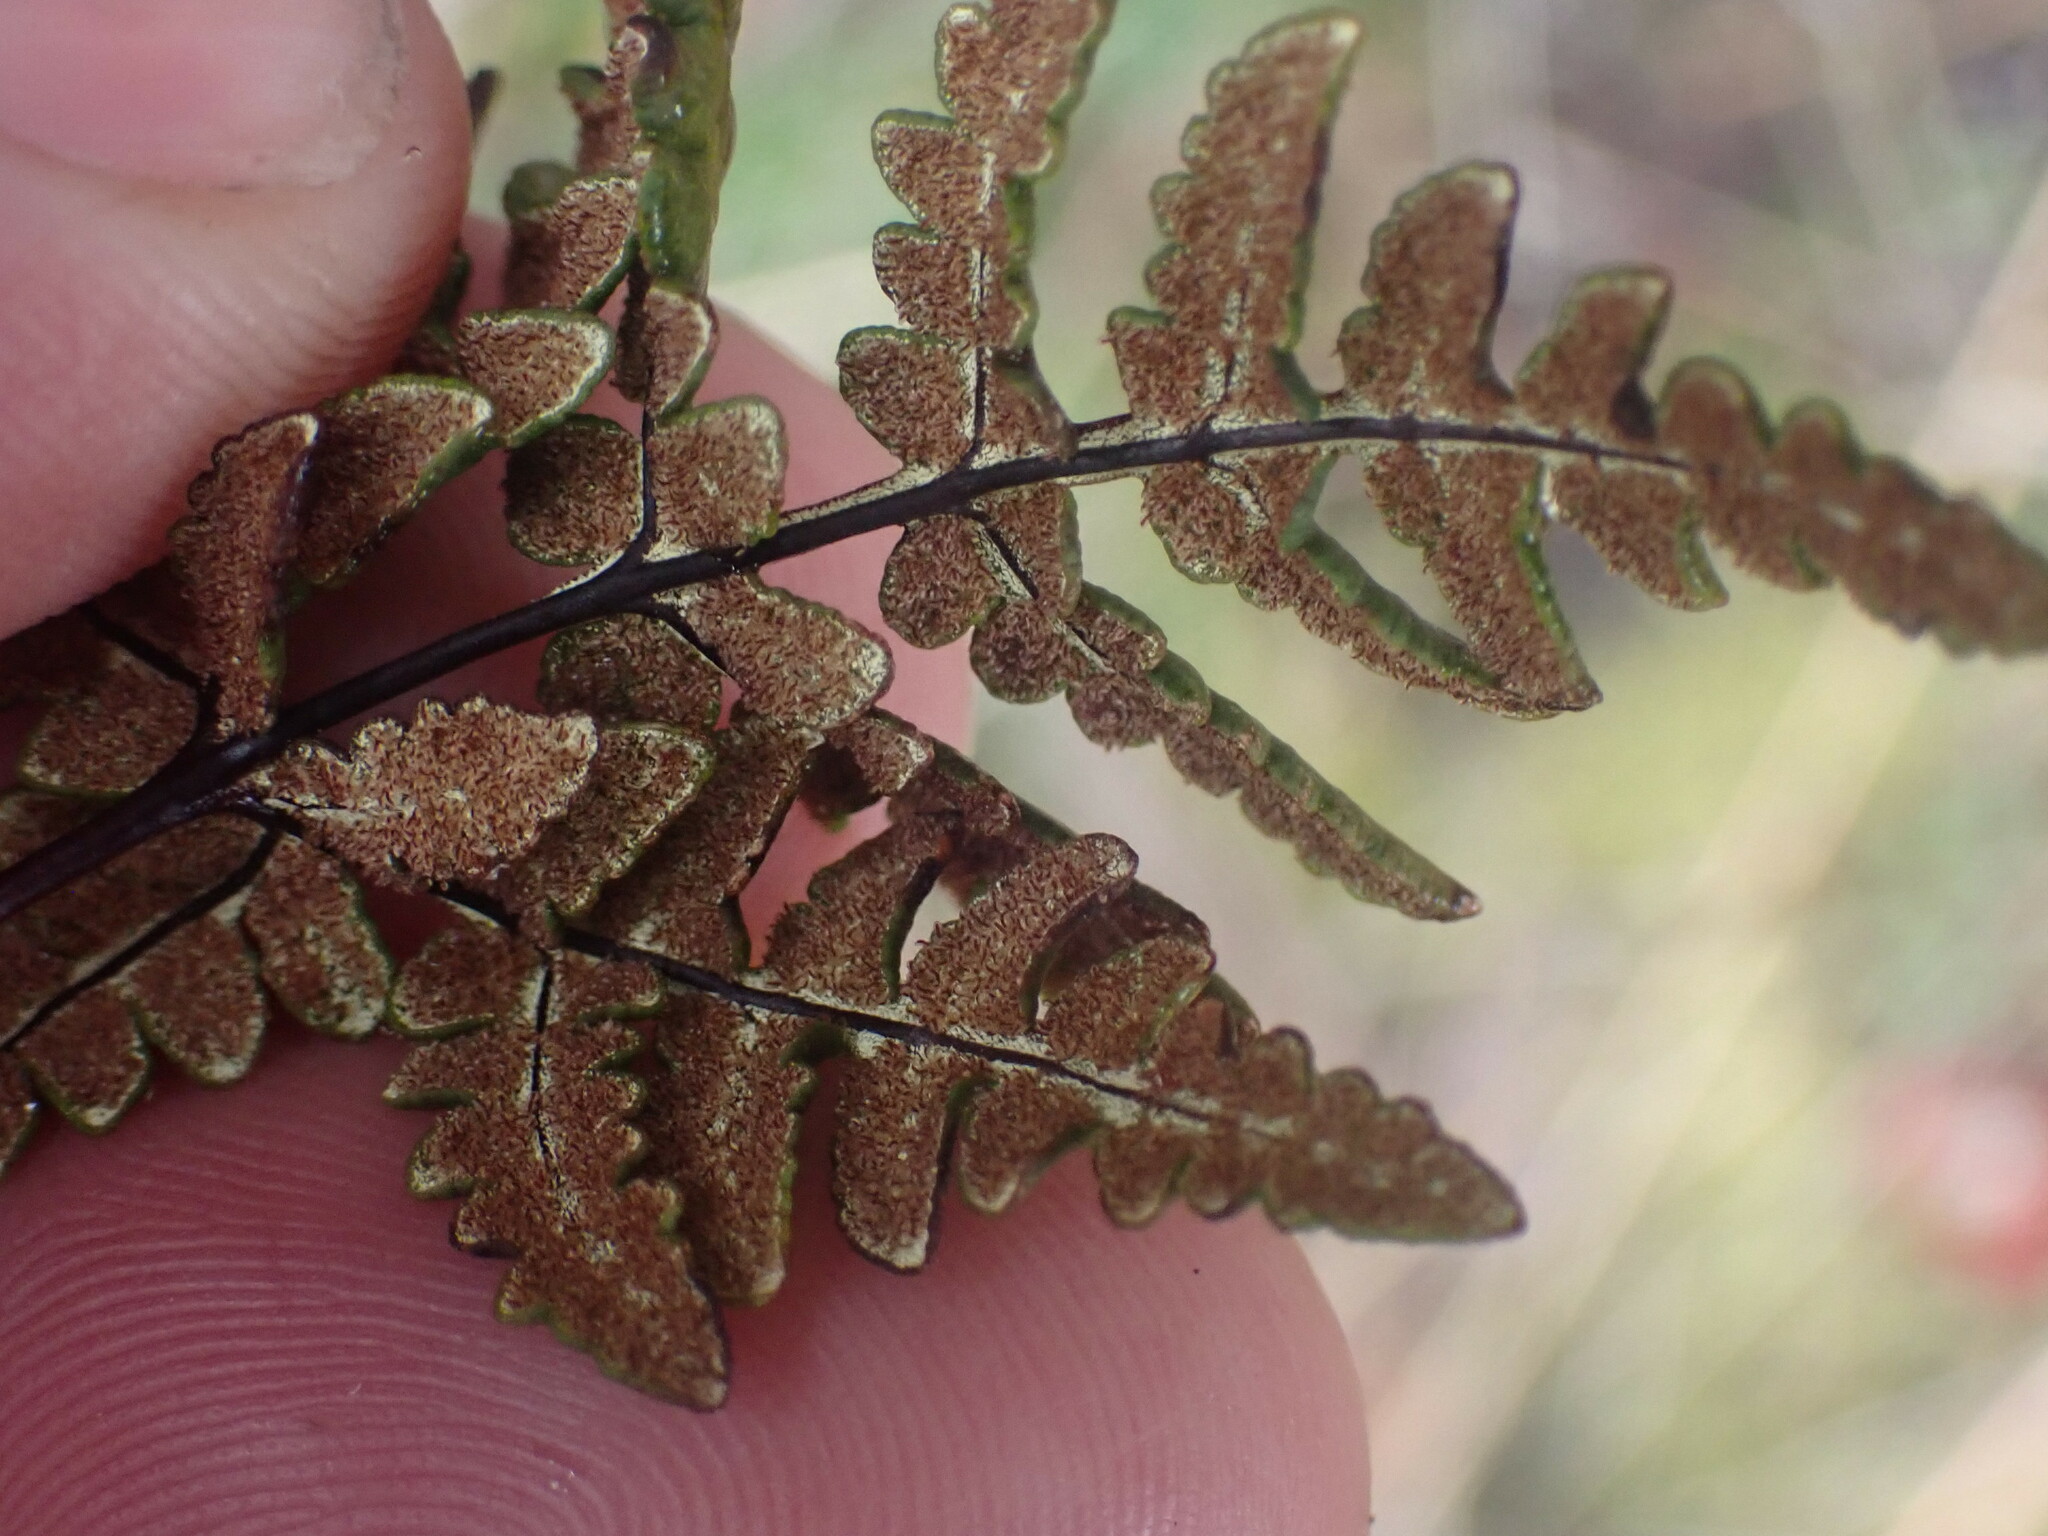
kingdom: Plantae
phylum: Tracheophyta
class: Polypodiopsida
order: Polypodiales
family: Pteridaceae
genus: Pentagramma
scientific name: Pentagramma triangularis
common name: Gold fern
